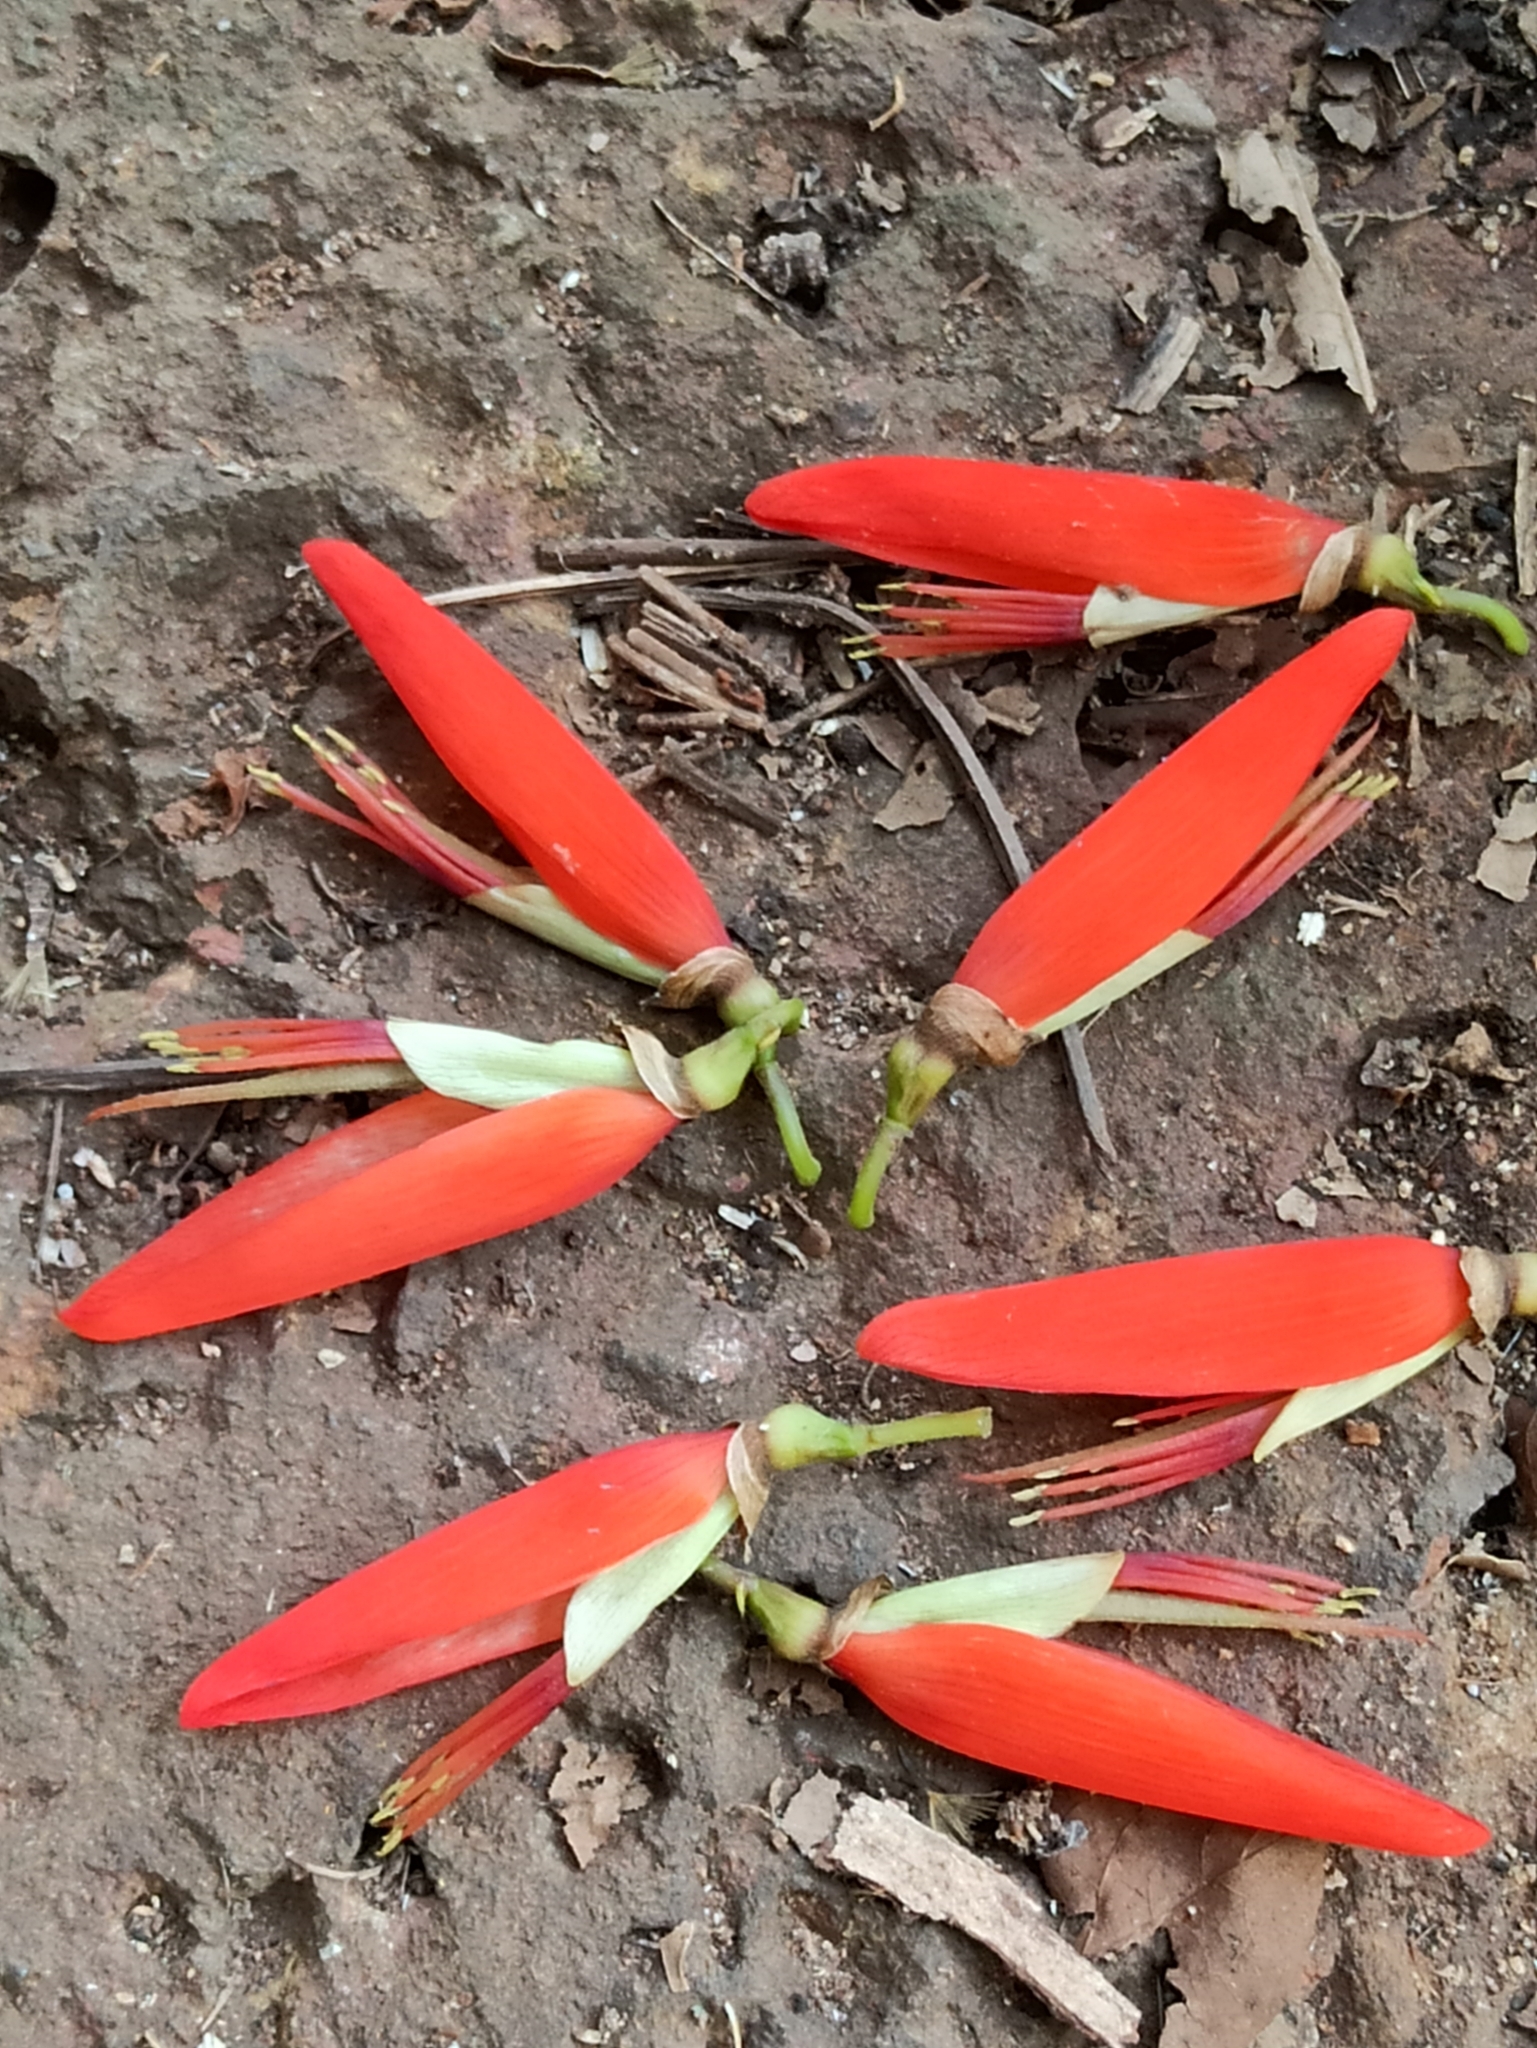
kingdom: Plantae
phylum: Tracheophyta
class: Magnoliopsida
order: Fabales
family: Fabaceae
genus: Erythrina
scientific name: Erythrina stricta
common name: Coraltree
